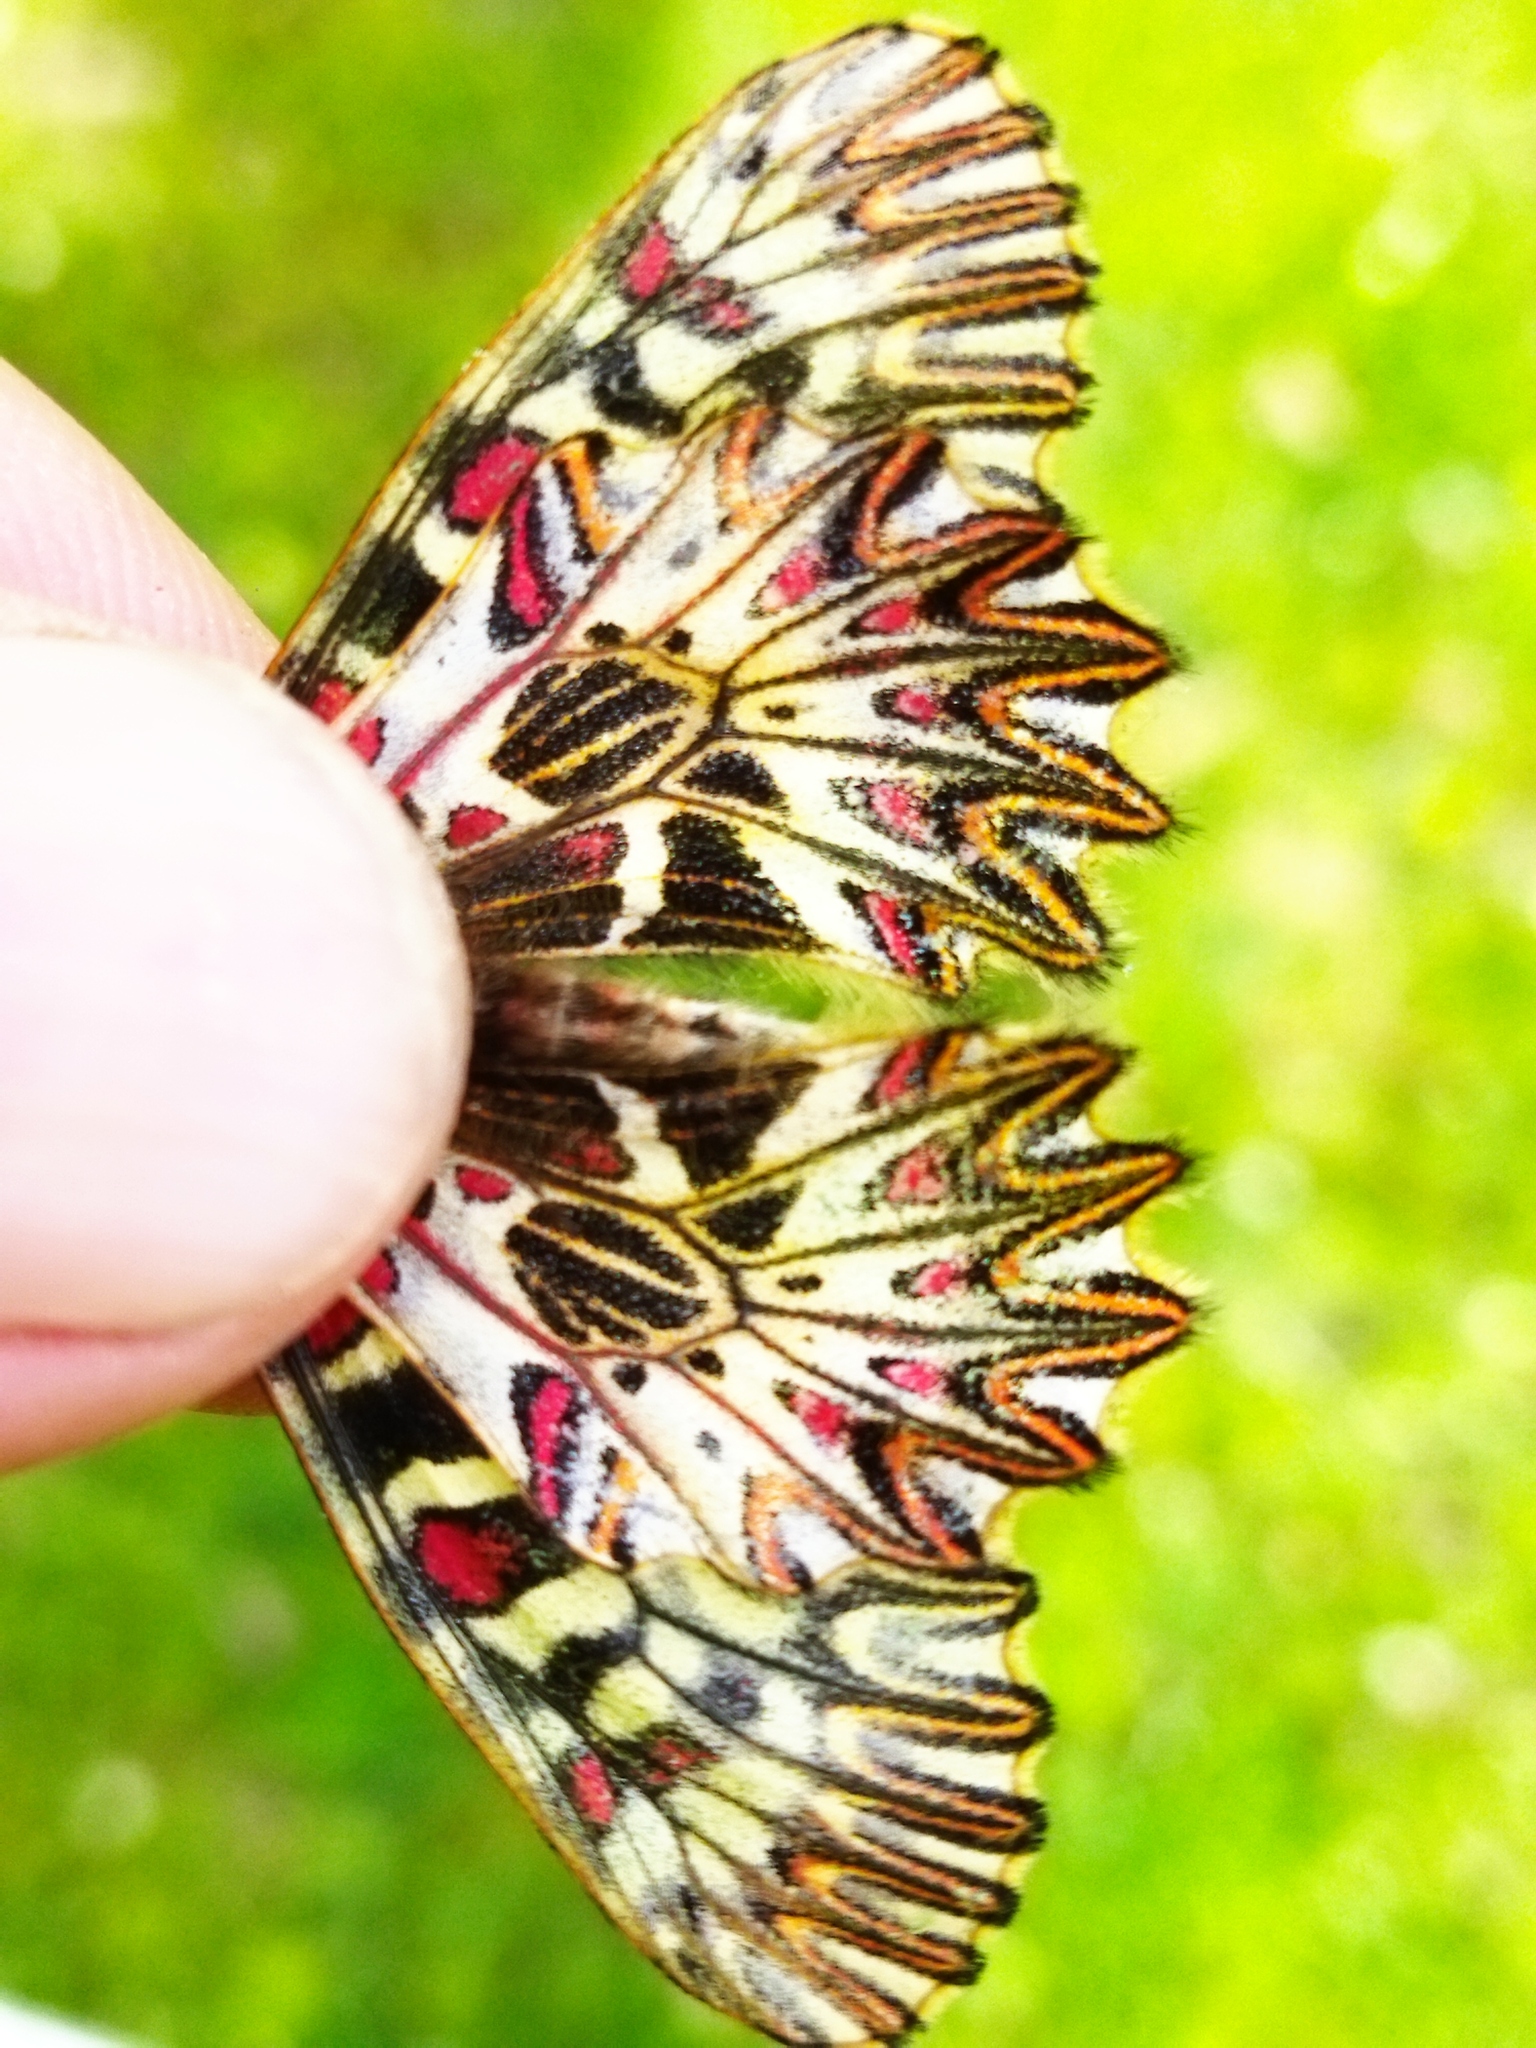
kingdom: Animalia
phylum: Arthropoda
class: Insecta
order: Lepidoptera
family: Papilionidae
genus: Zerynthia
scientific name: Zerynthia polyxena
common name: Southern festoon
